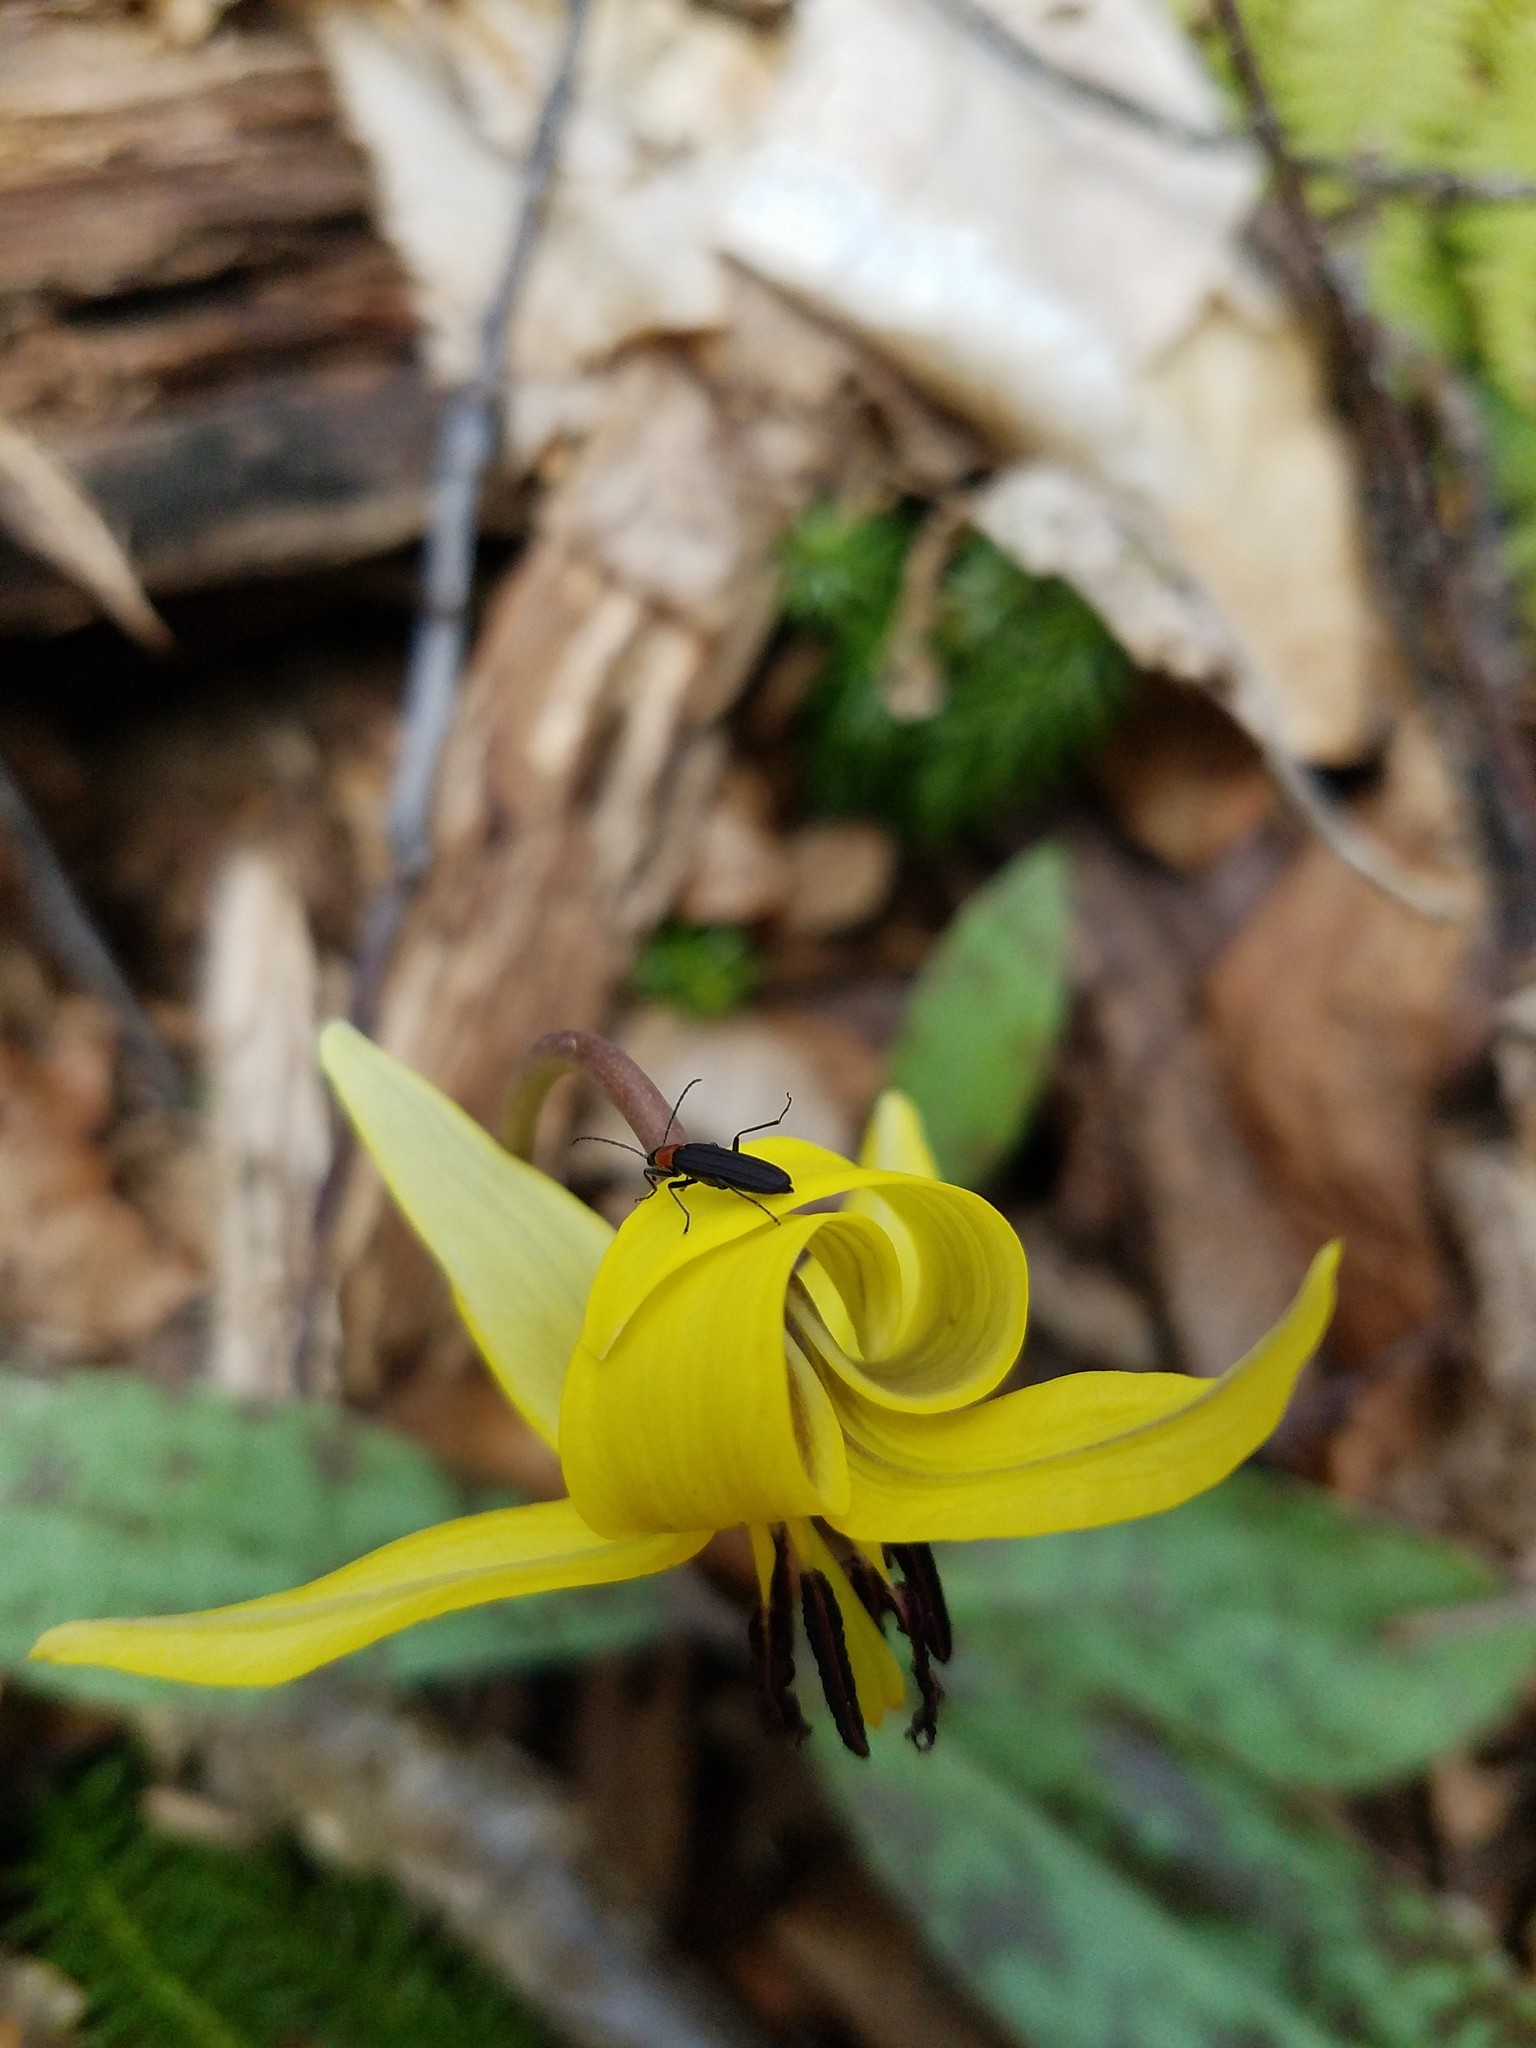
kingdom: Animalia
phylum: Arthropoda
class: Insecta
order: Coleoptera
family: Oedemeridae
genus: Ischnomera
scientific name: Ischnomera
